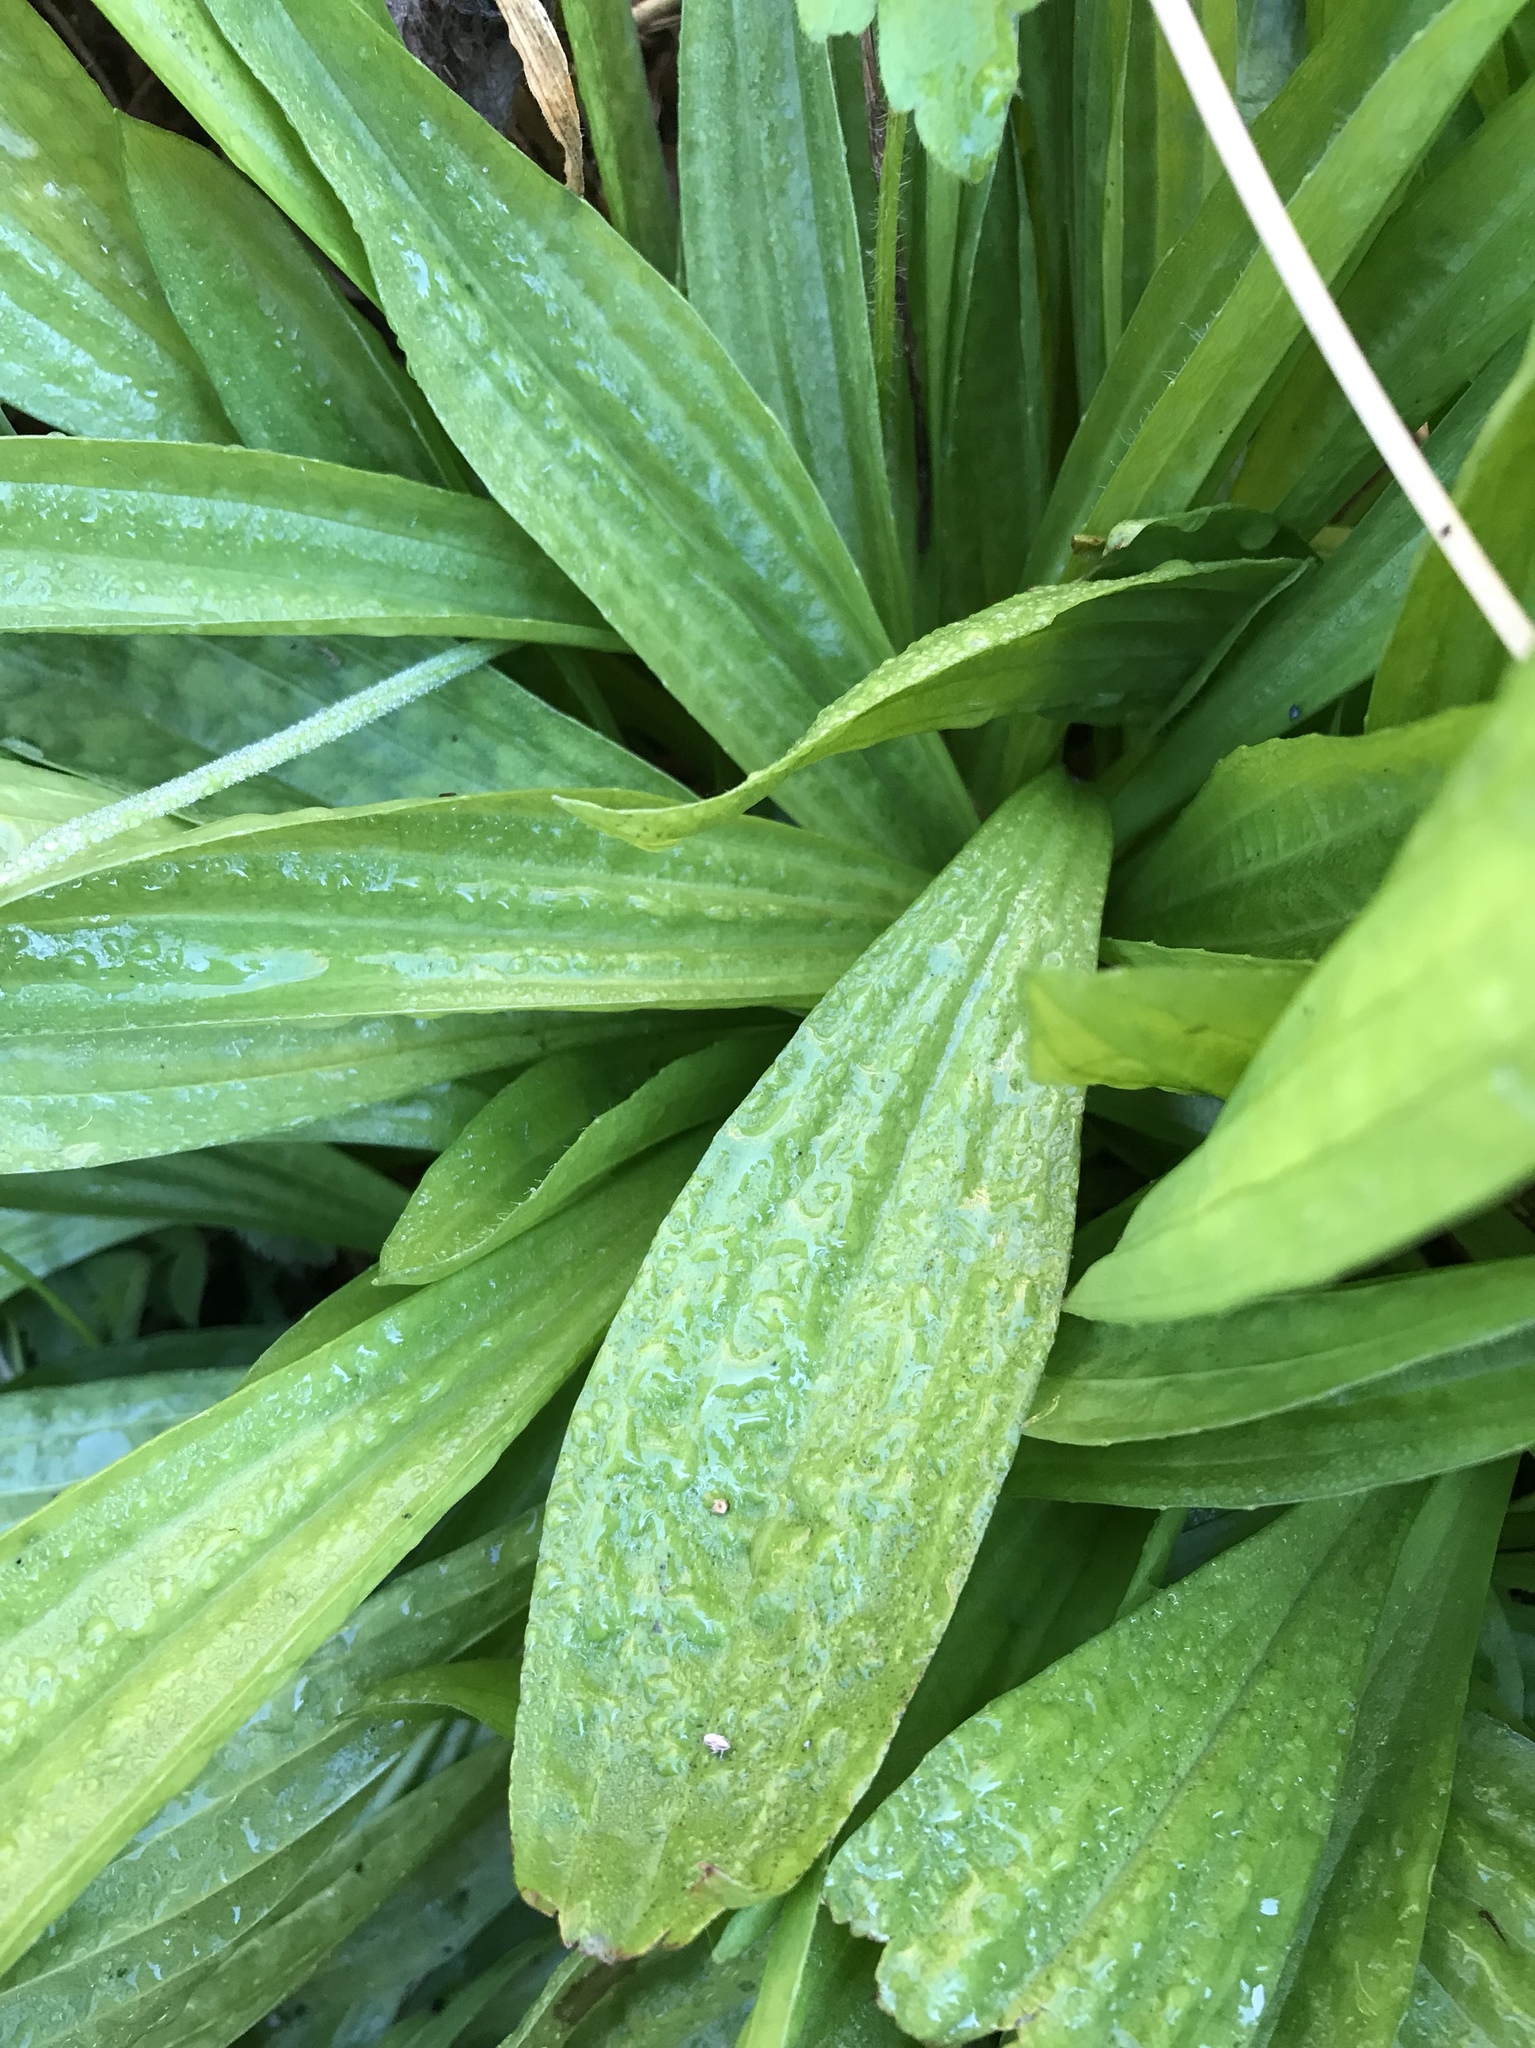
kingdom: Plantae
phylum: Tracheophyta
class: Magnoliopsida
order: Lamiales
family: Plantaginaceae
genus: Plantago
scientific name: Plantago lanceolata
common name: Ribwort plantain
